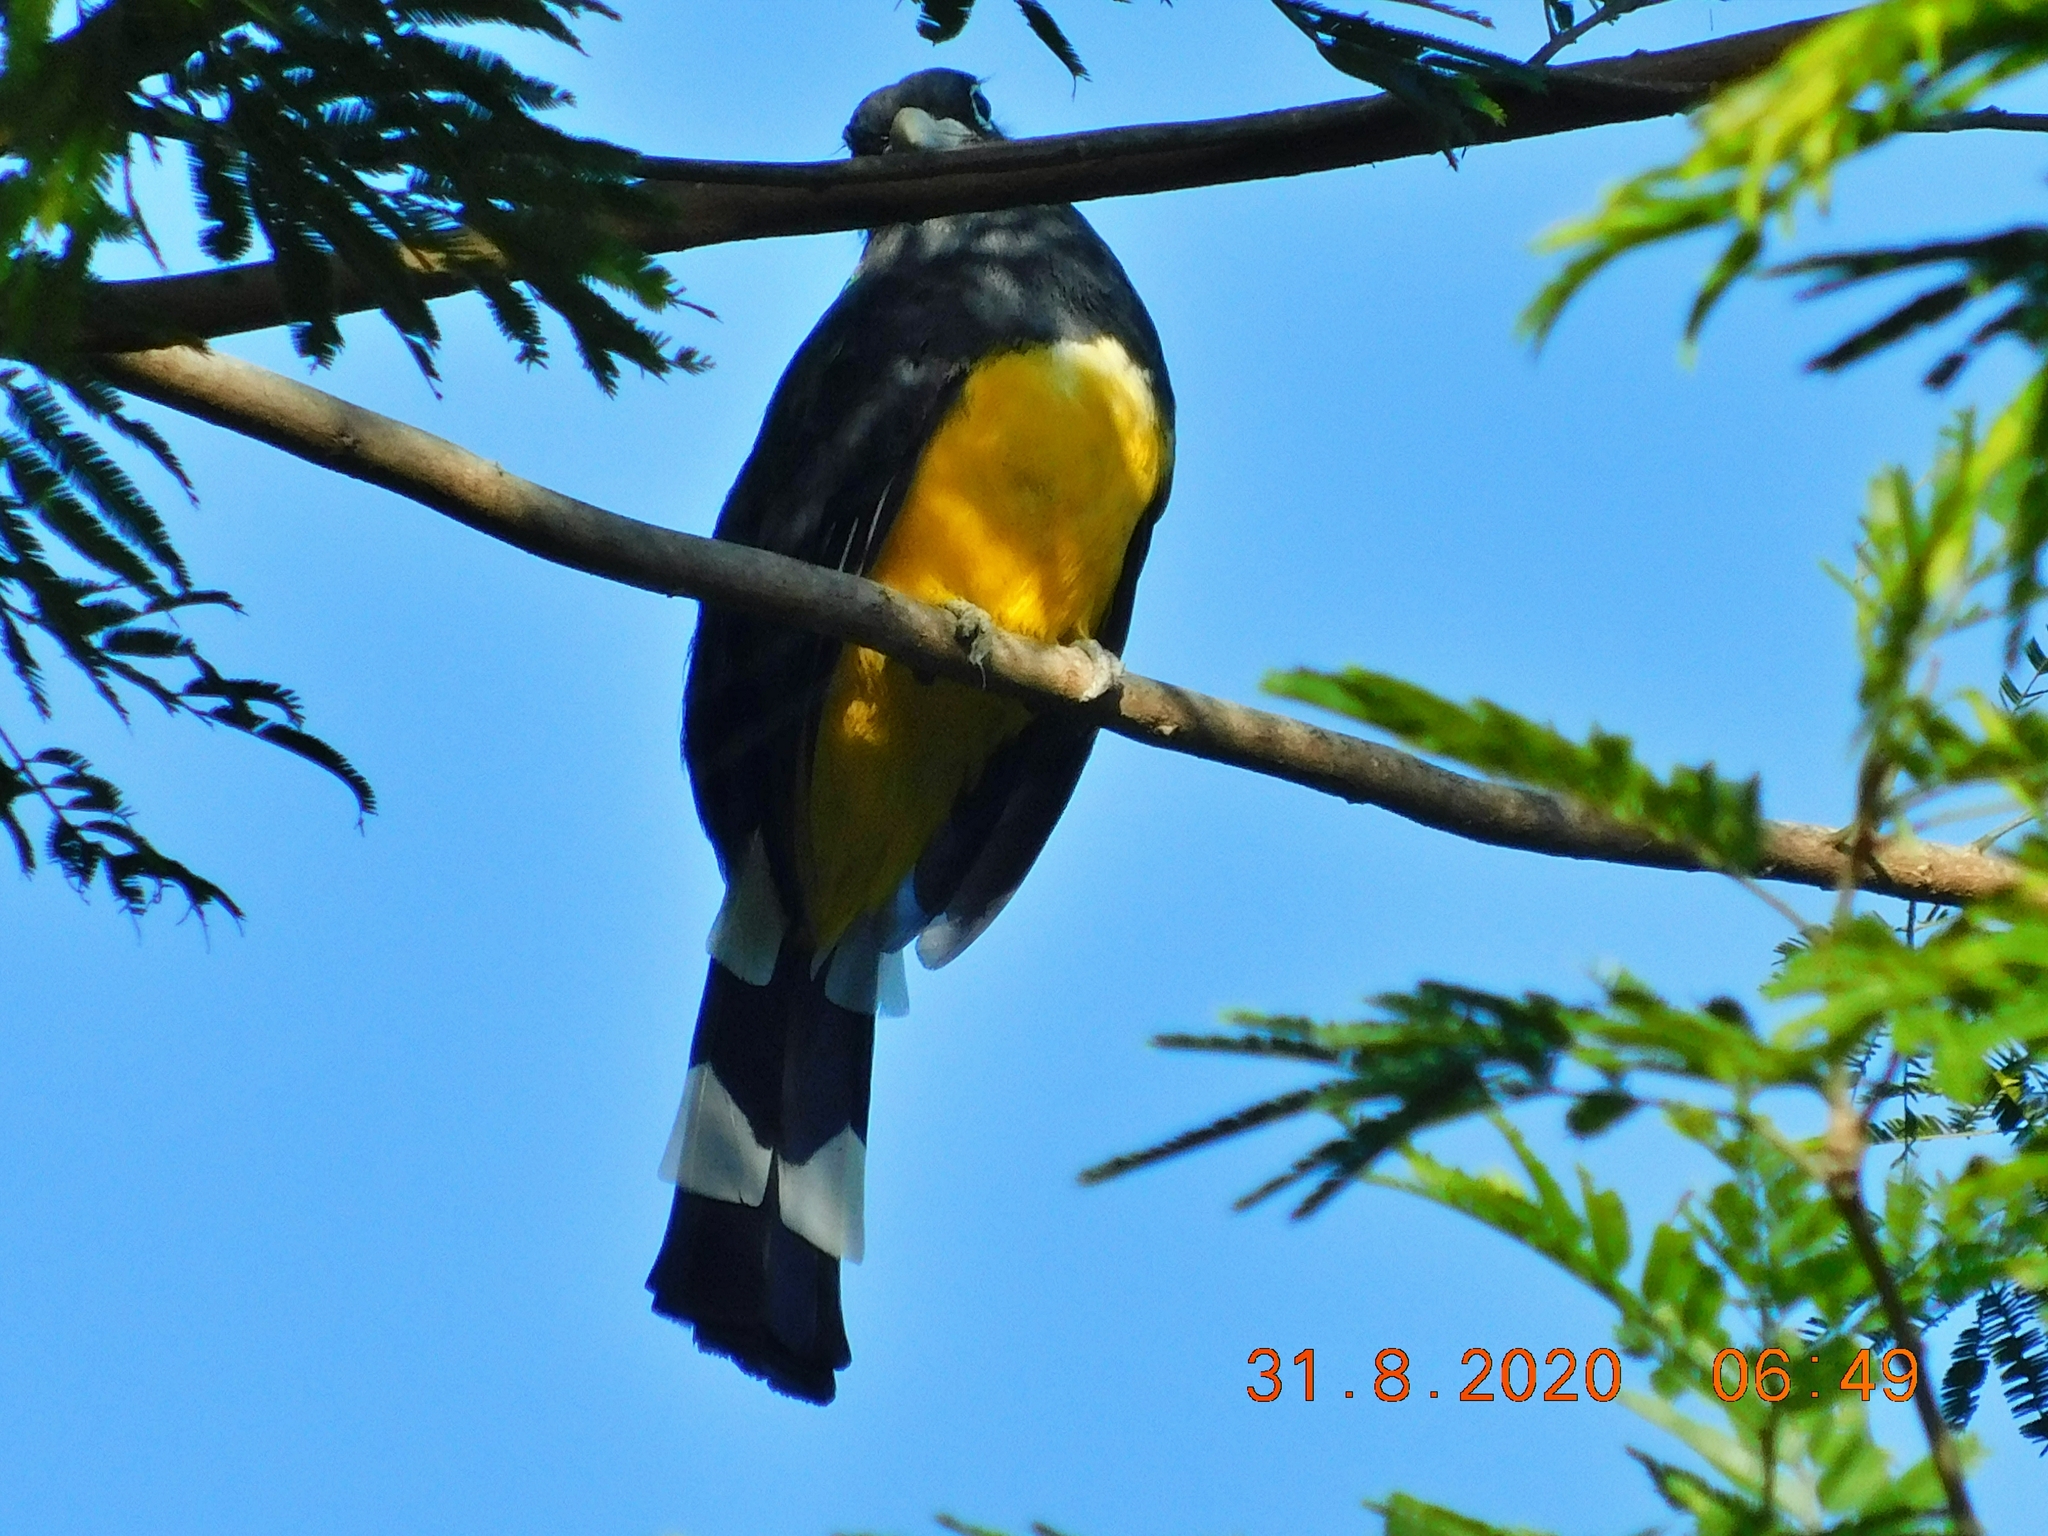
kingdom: Animalia
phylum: Chordata
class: Aves
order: Trogoniformes
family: Trogonidae
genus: Trogon
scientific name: Trogon melanocephalus
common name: Black-headed trogon
